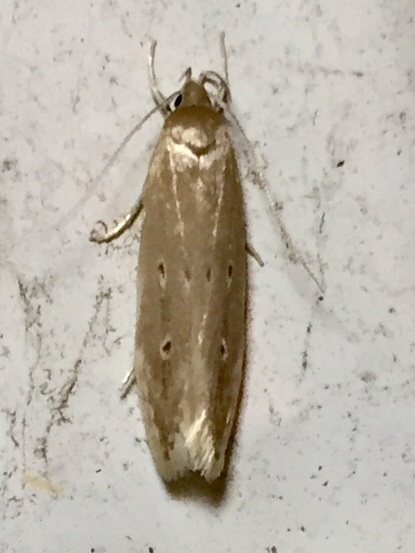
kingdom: Animalia
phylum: Arthropoda
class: Insecta
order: Lepidoptera
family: Cosmopterigidae
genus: Limnaecia
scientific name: Limnaecia phragmitella
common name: Bulrush cosmet
